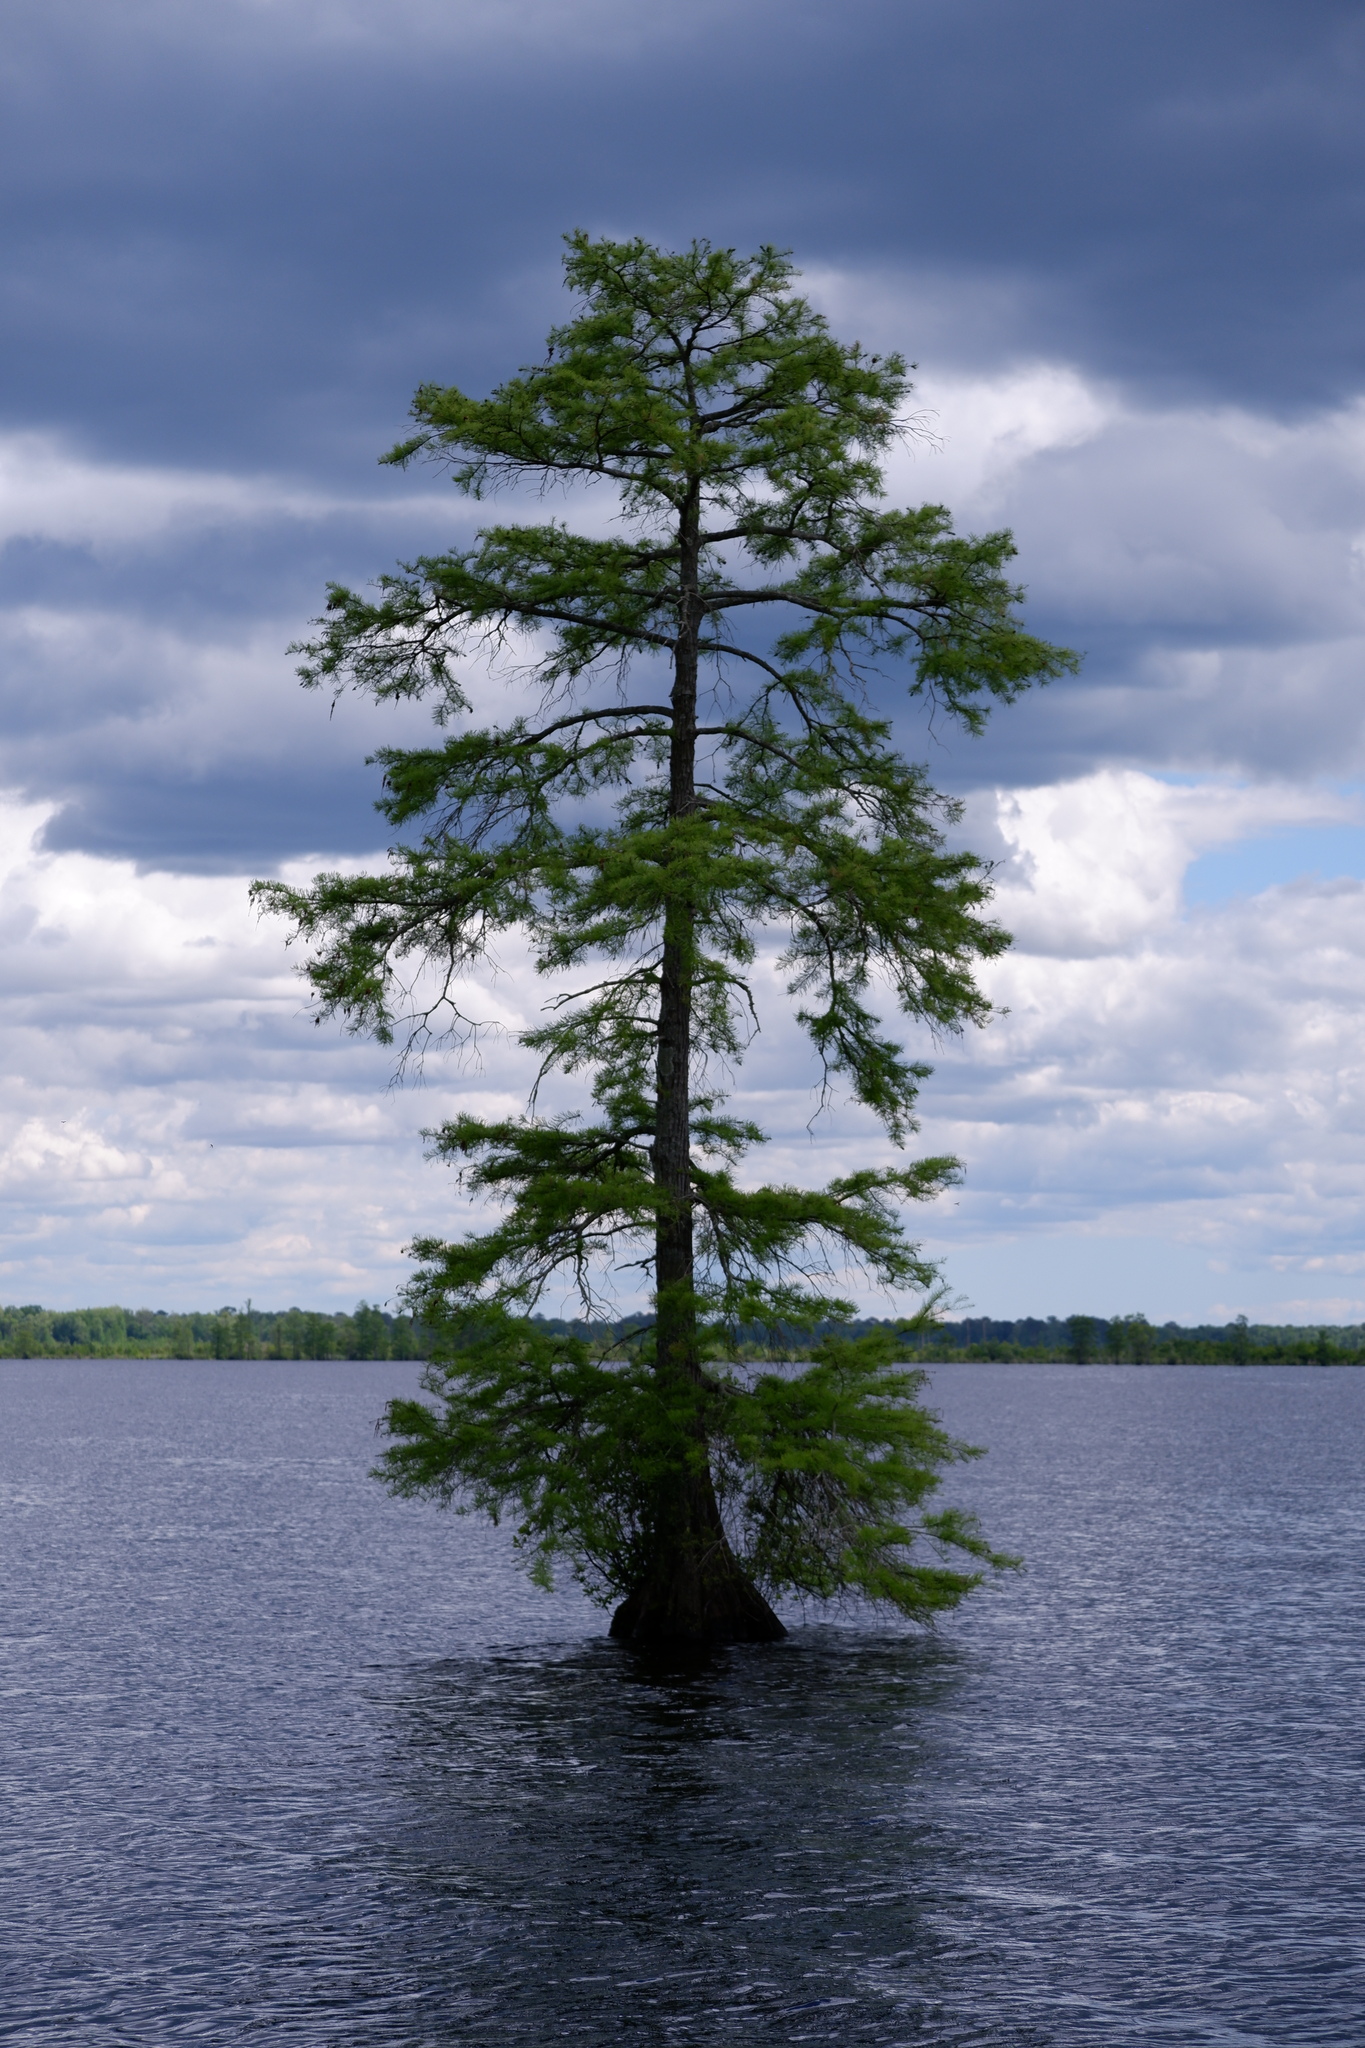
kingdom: Plantae
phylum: Tracheophyta
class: Pinopsida
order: Pinales
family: Cupressaceae
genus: Taxodium
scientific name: Taxodium distichum
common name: Bald cypress
